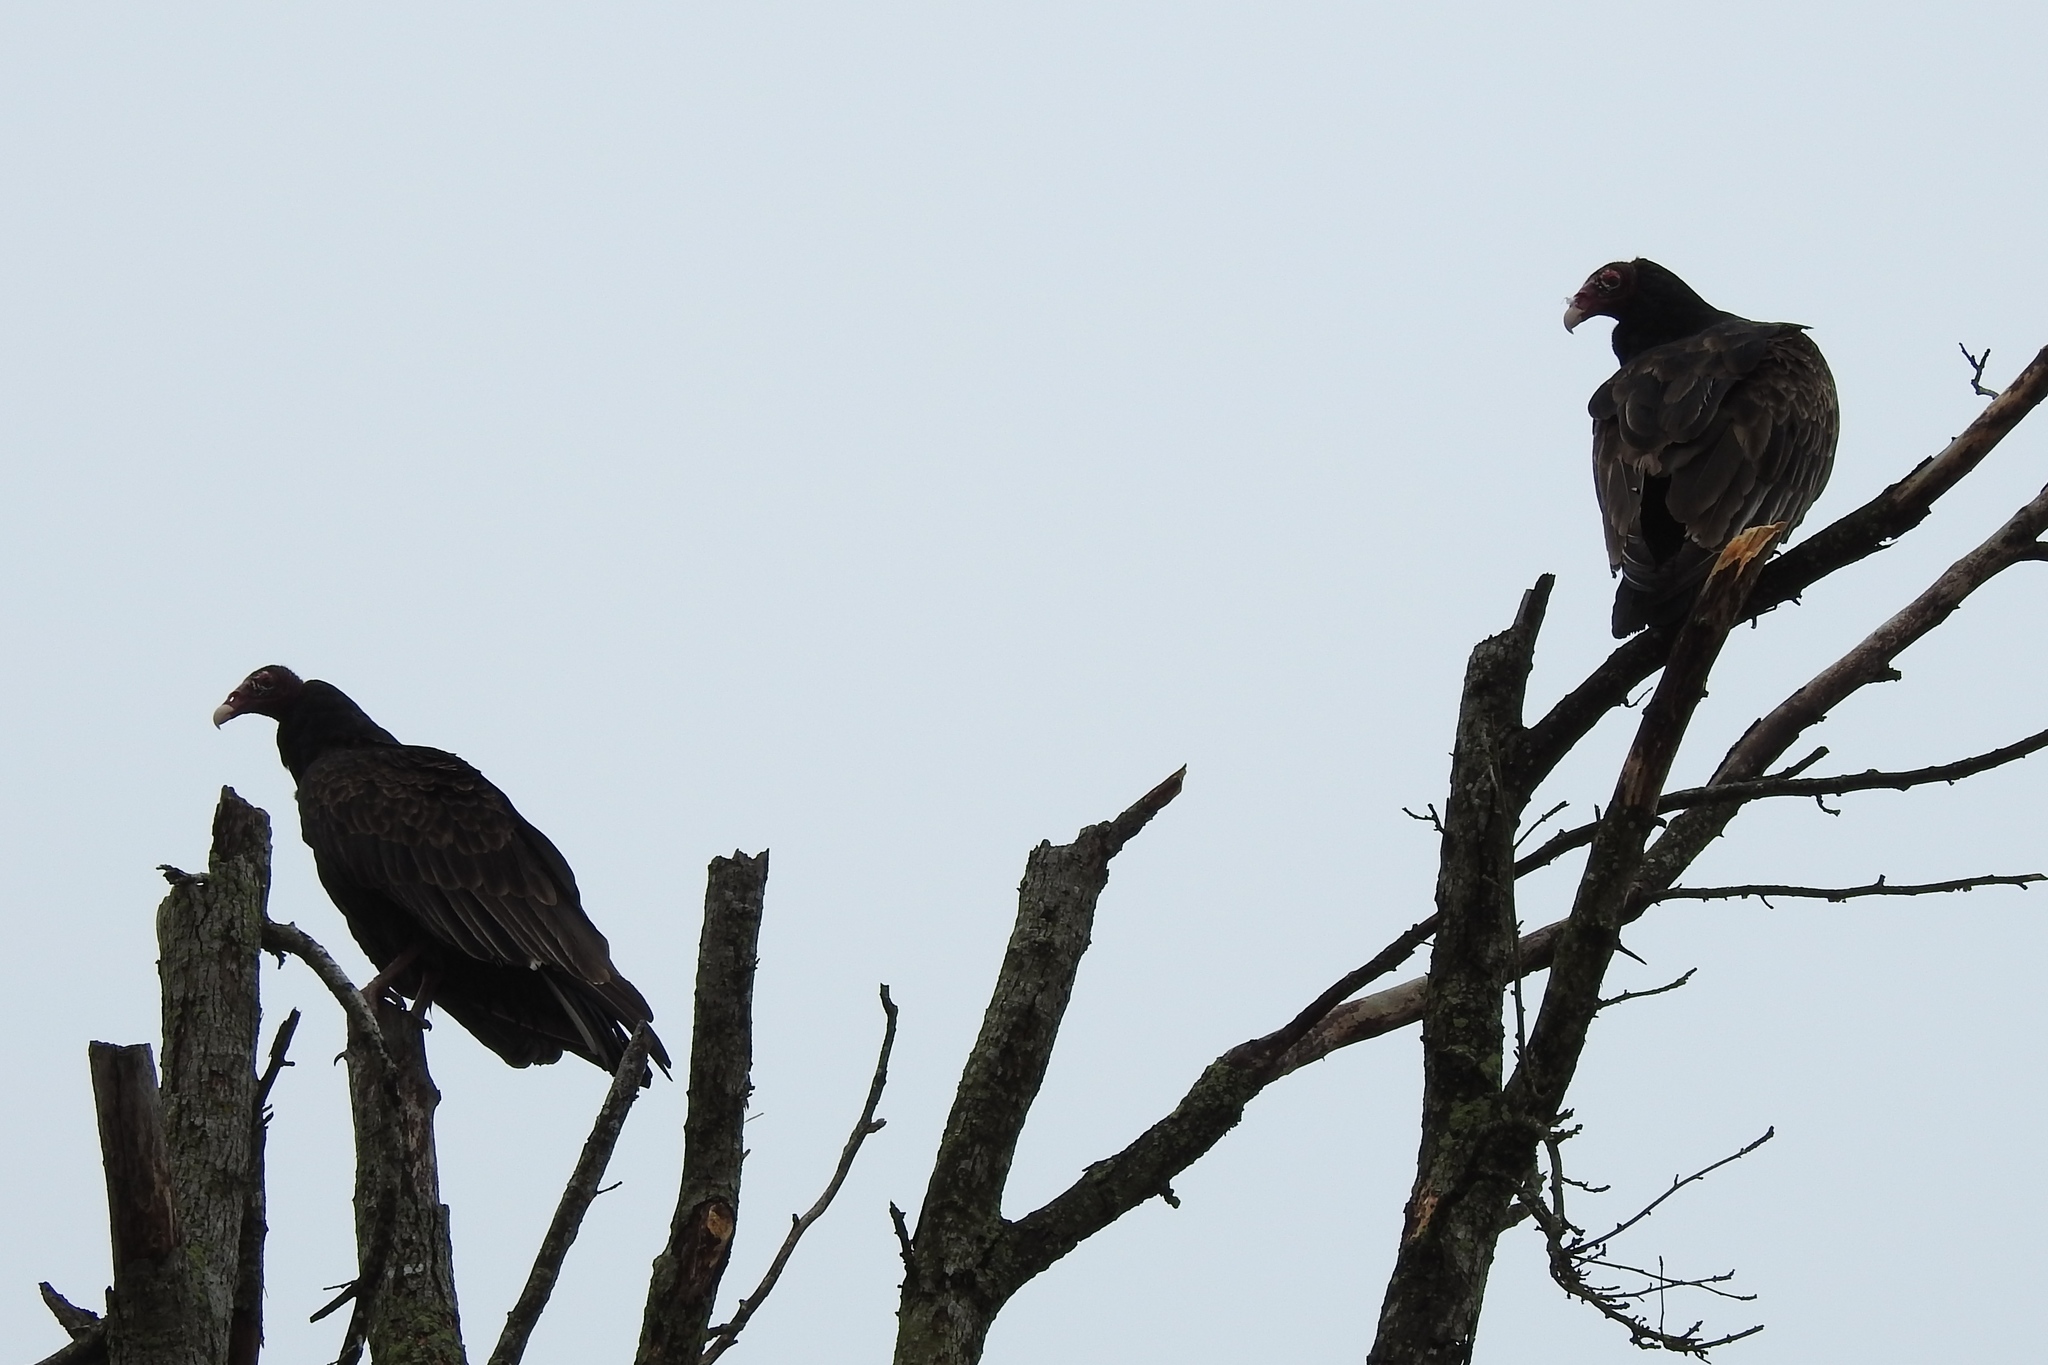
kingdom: Animalia
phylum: Chordata
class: Aves
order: Accipitriformes
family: Cathartidae
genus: Cathartes
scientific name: Cathartes aura
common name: Turkey vulture
